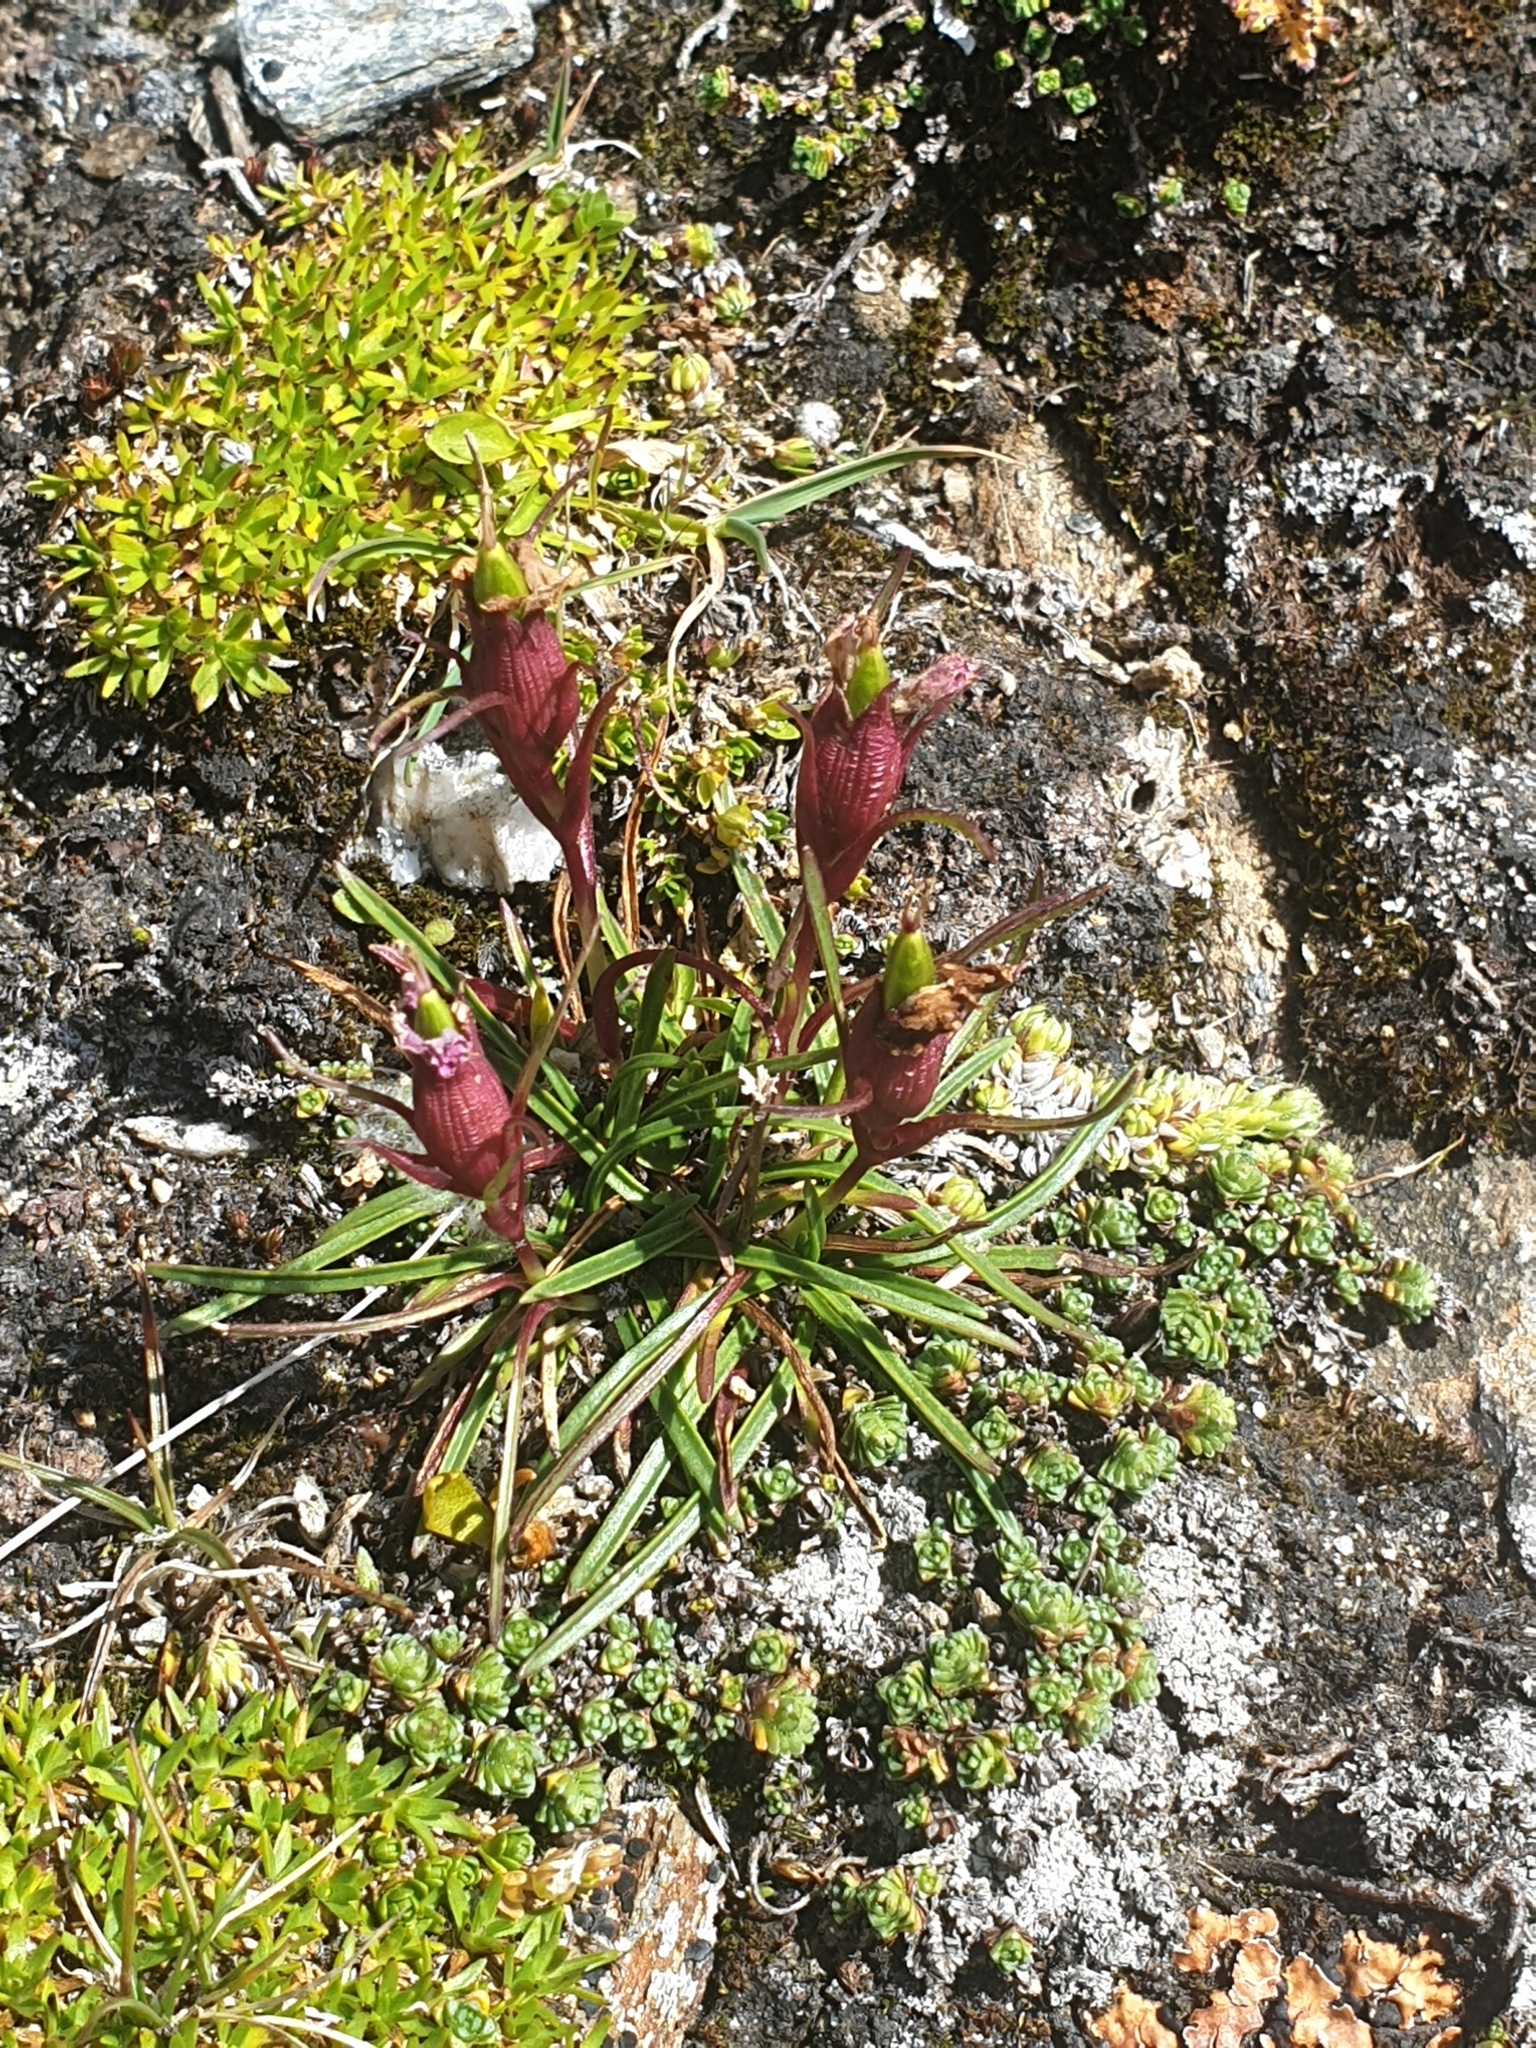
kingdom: Plantae
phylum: Tracheophyta
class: Magnoliopsida
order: Caryophyllales
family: Caryophyllaceae
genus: Dianthus
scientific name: Dianthus glacialis
